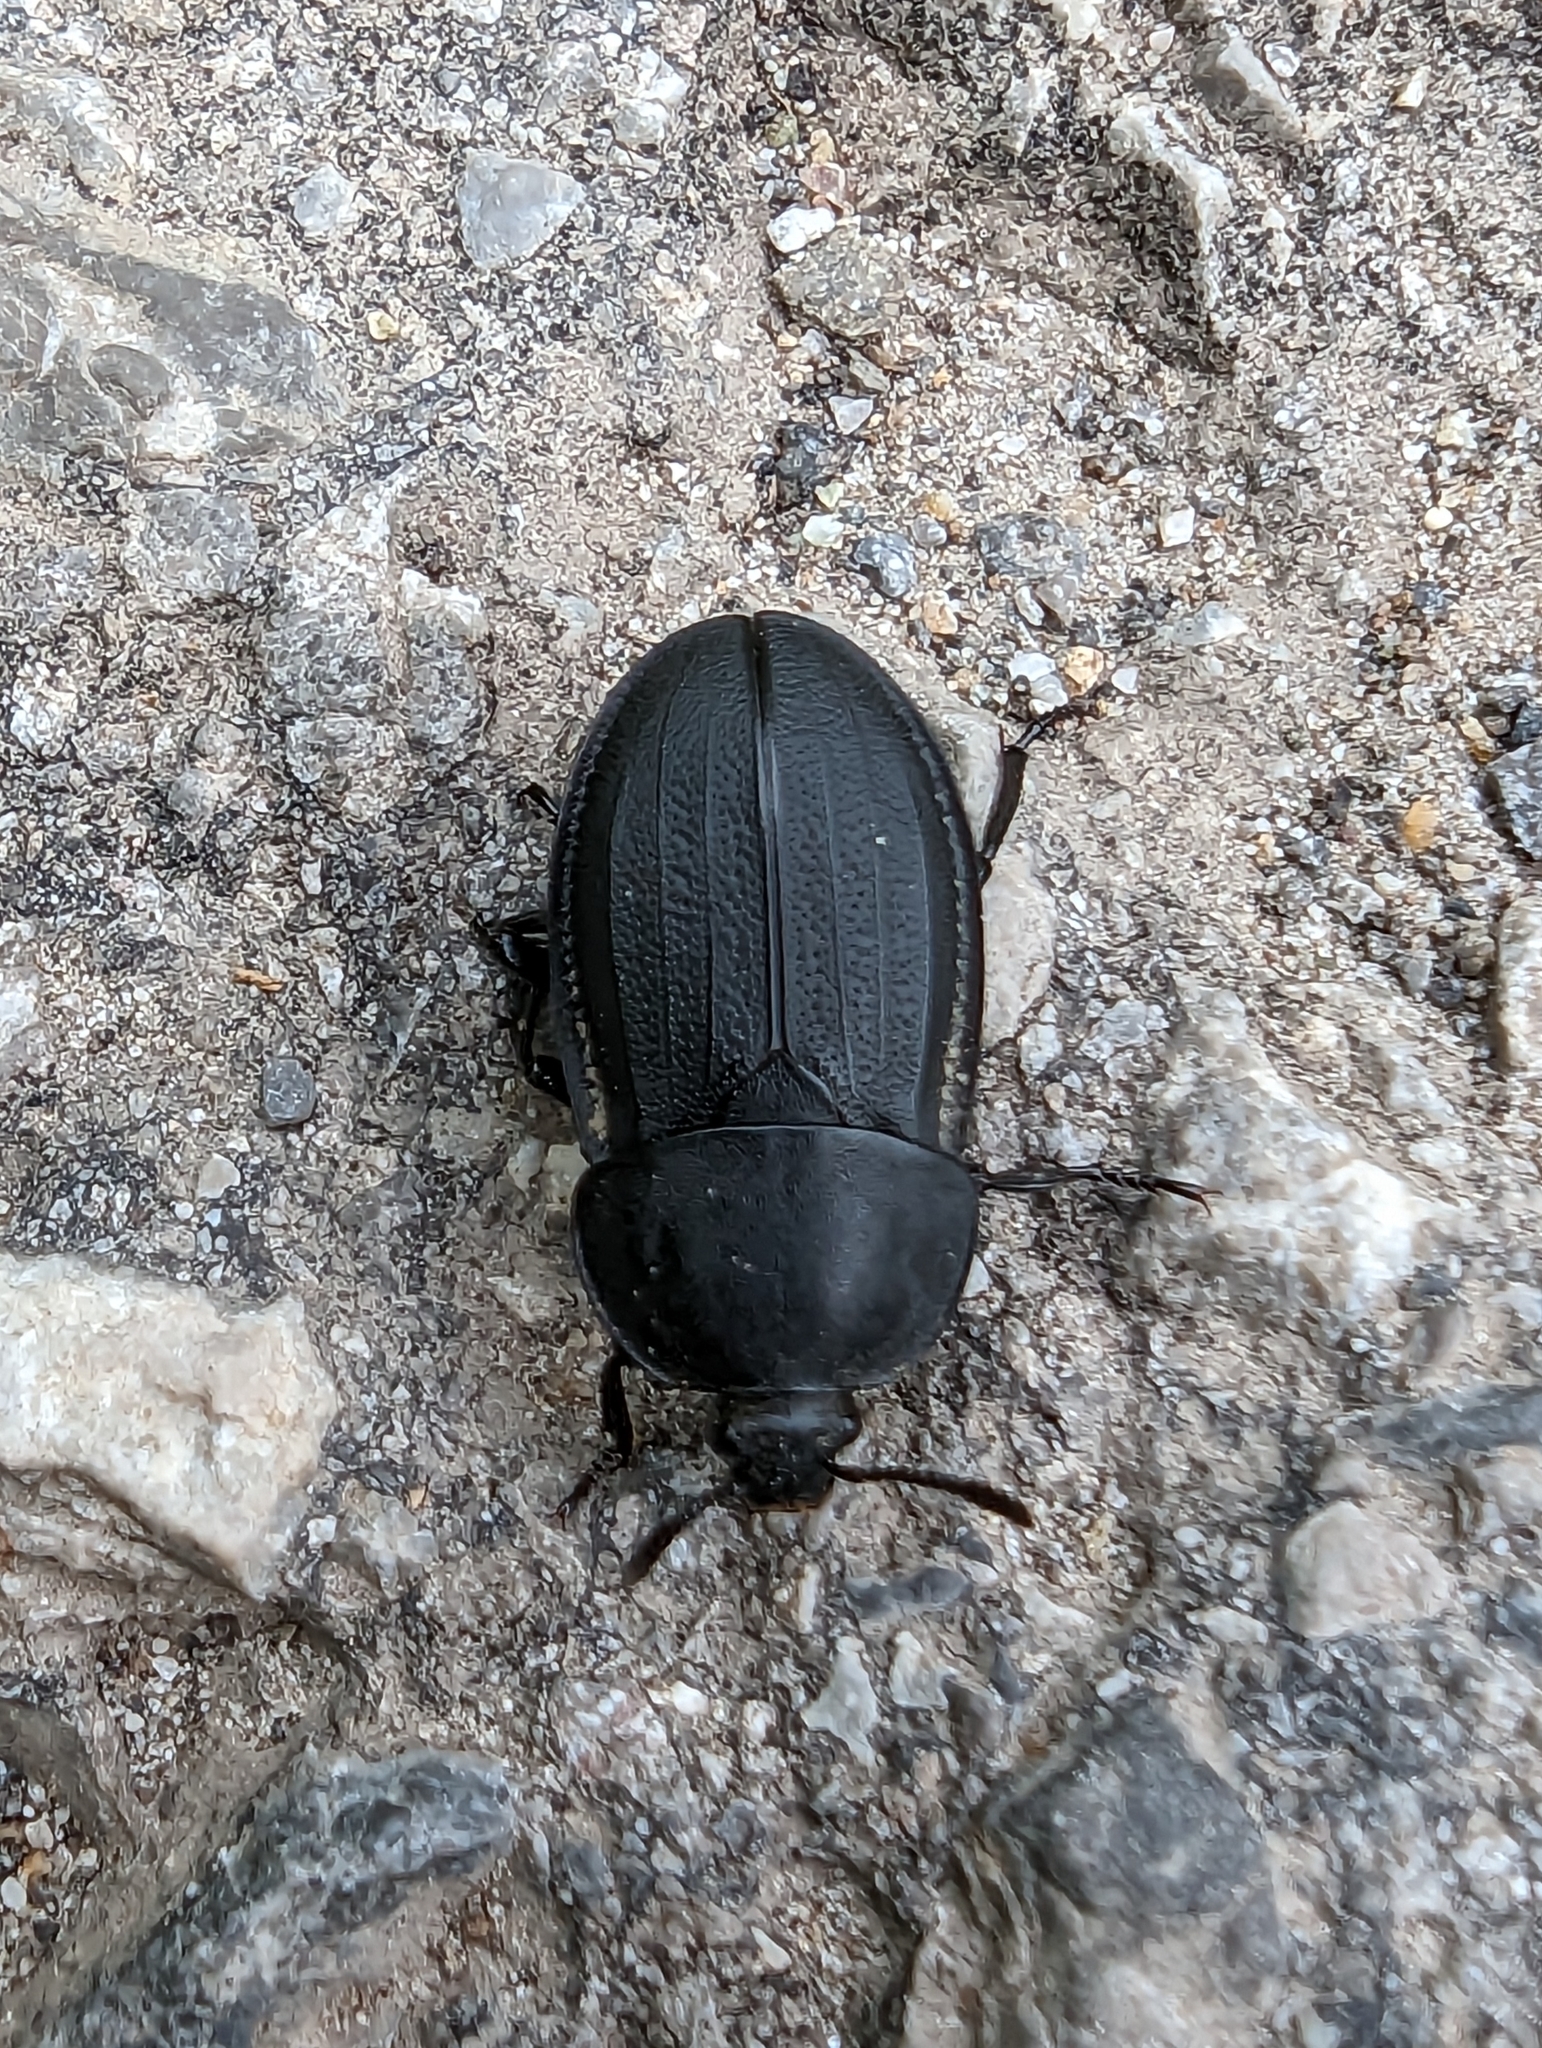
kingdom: Animalia
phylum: Arthropoda
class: Insecta
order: Coleoptera
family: Staphylinidae
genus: Silpha
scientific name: Silpha obscura
